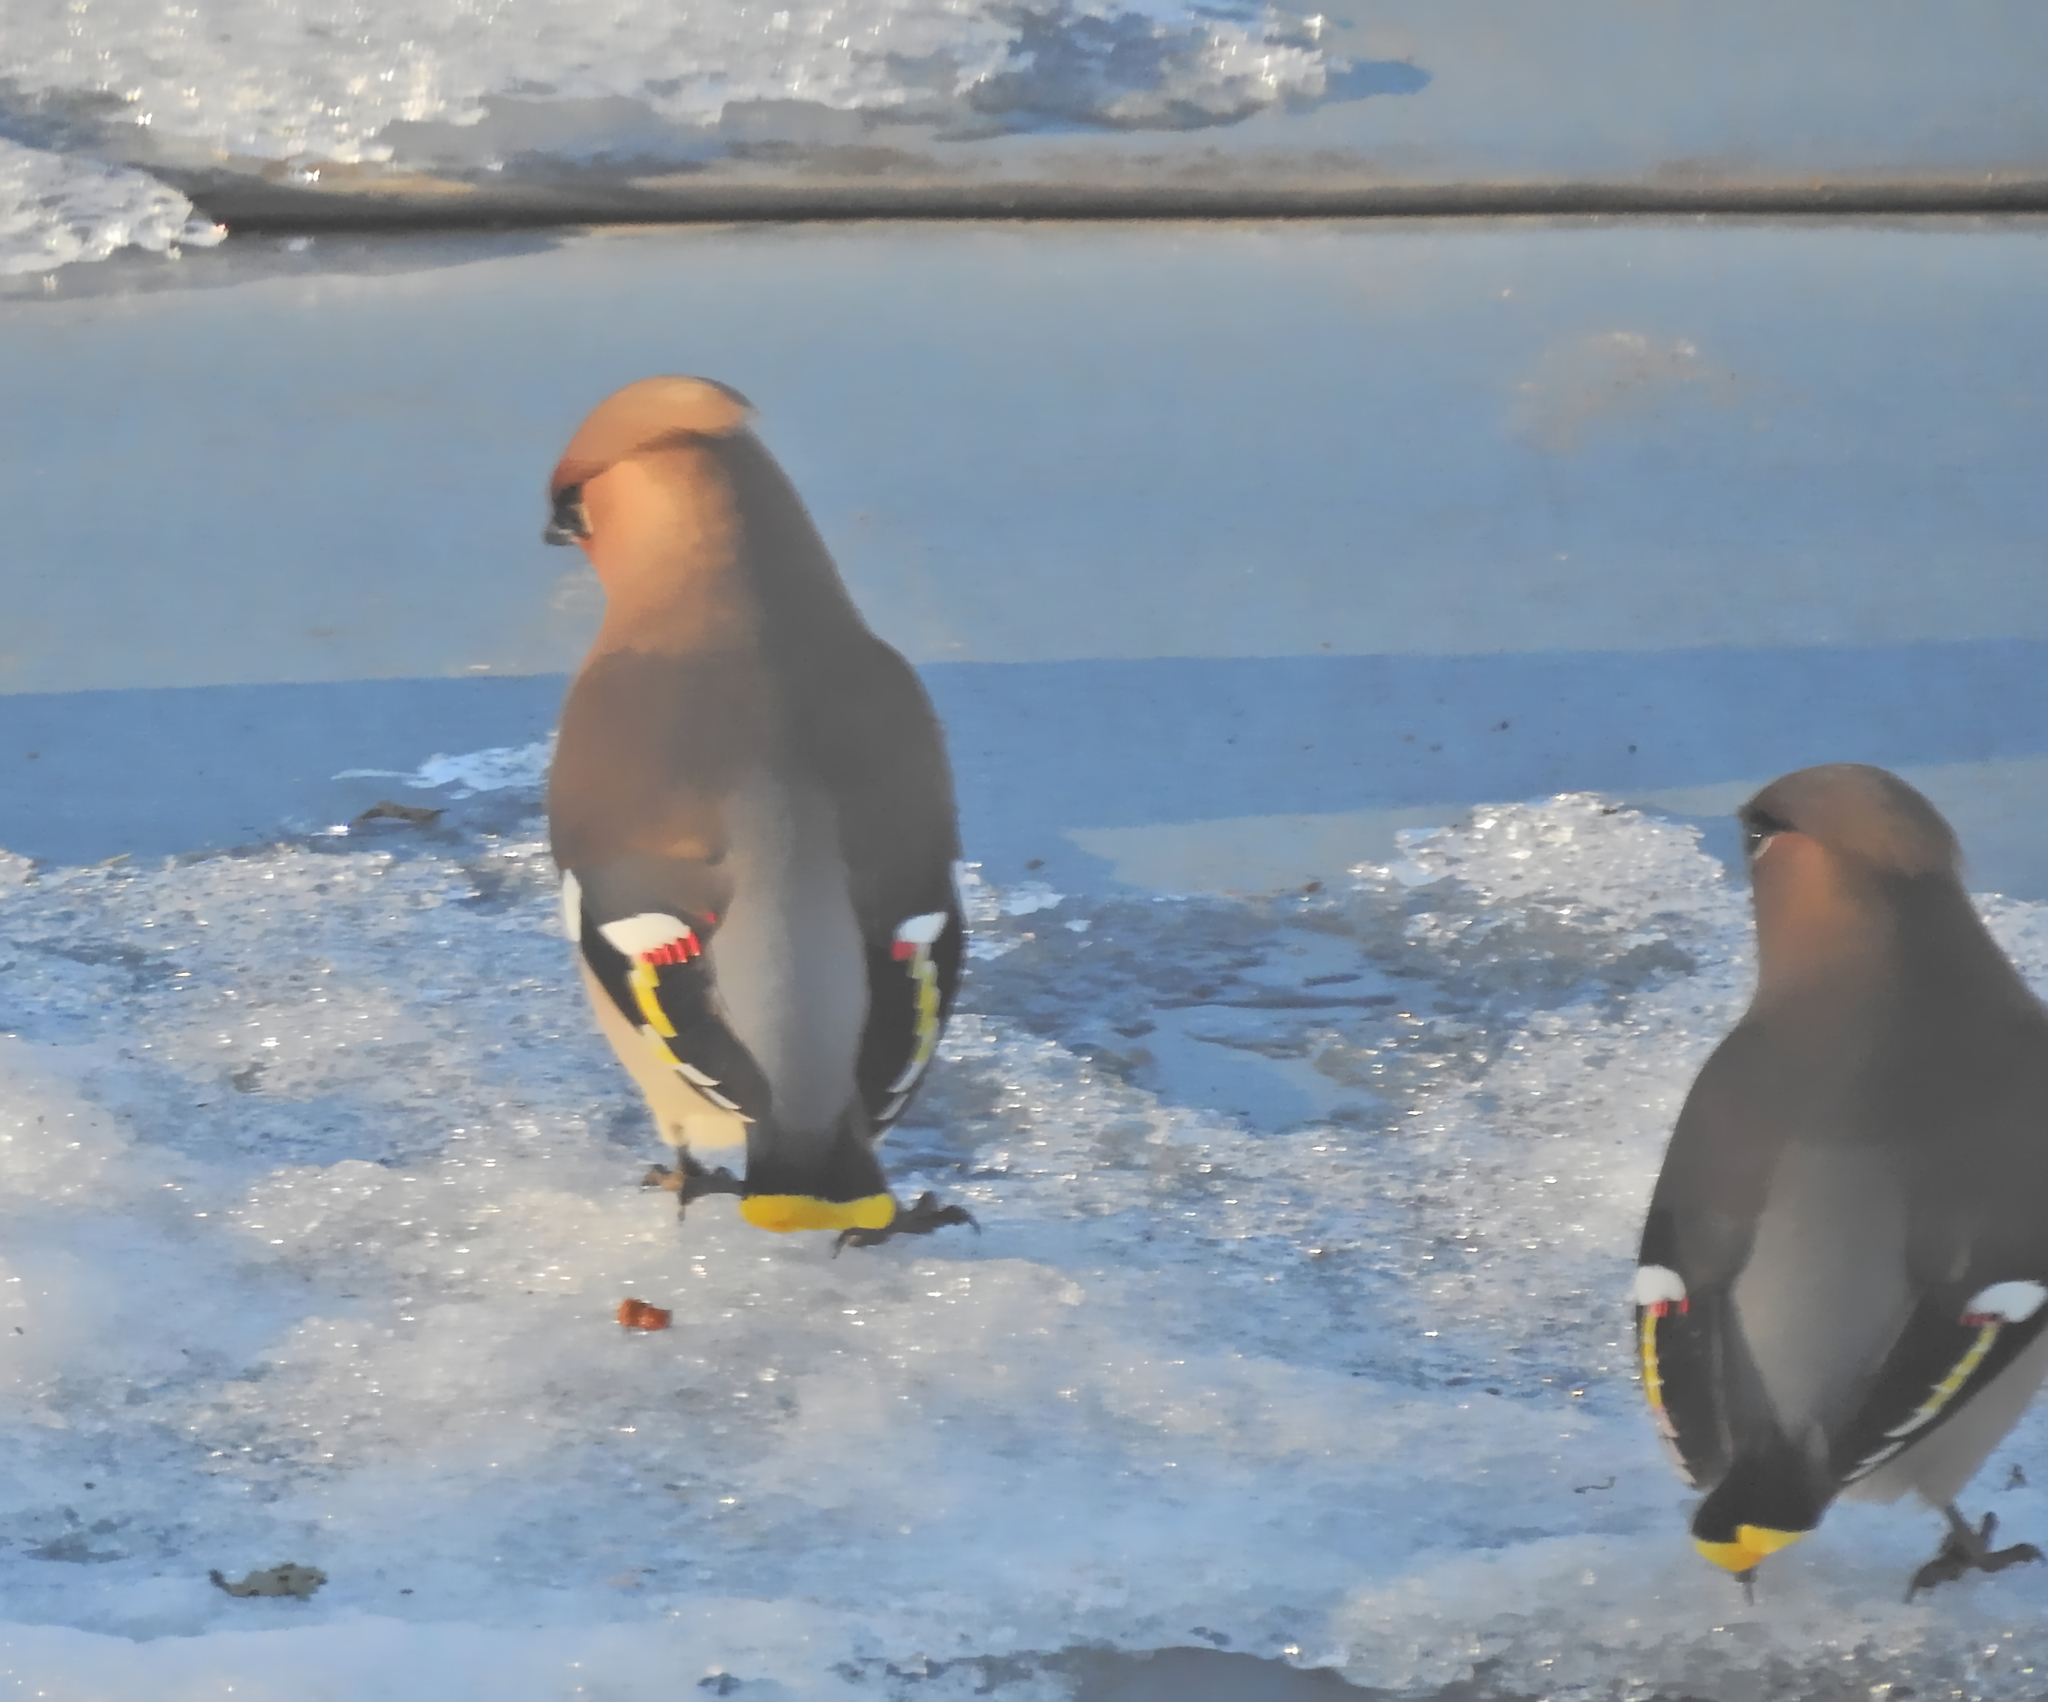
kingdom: Animalia
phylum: Chordata
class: Aves
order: Passeriformes
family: Bombycillidae
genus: Bombycilla
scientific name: Bombycilla garrulus
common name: Bohemian waxwing
